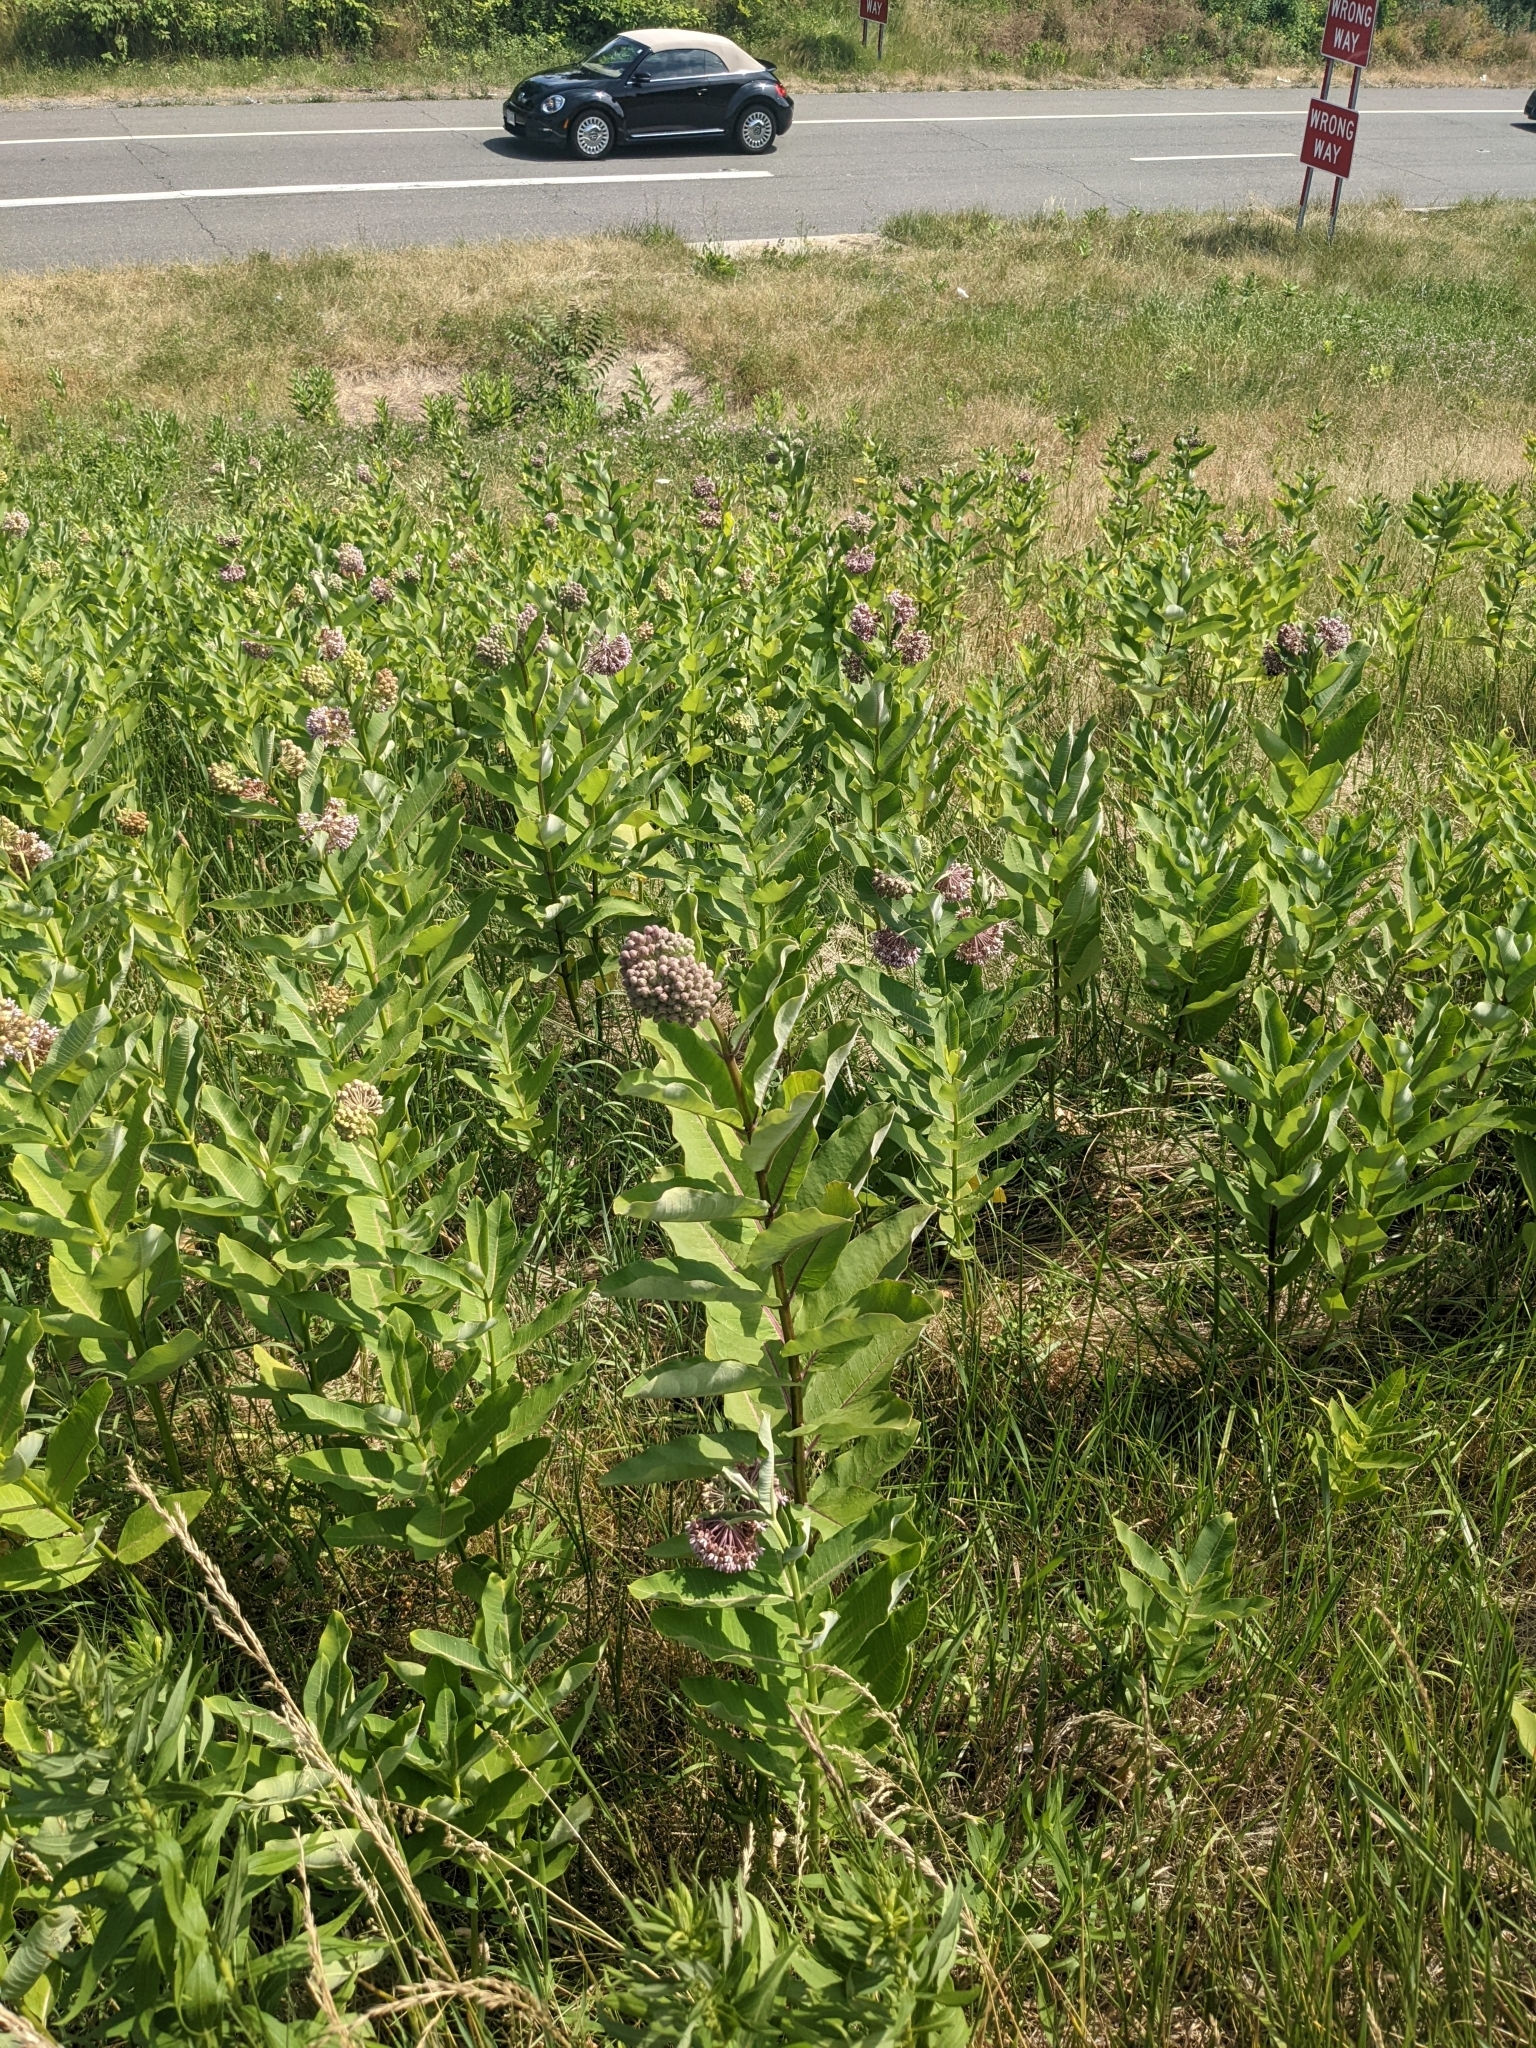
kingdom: Plantae
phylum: Tracheophyta
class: Magnoliopsida
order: Gentianales
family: Apocynaceae
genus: Asclepias
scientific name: Asclepias syriaca
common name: Common milkweed
